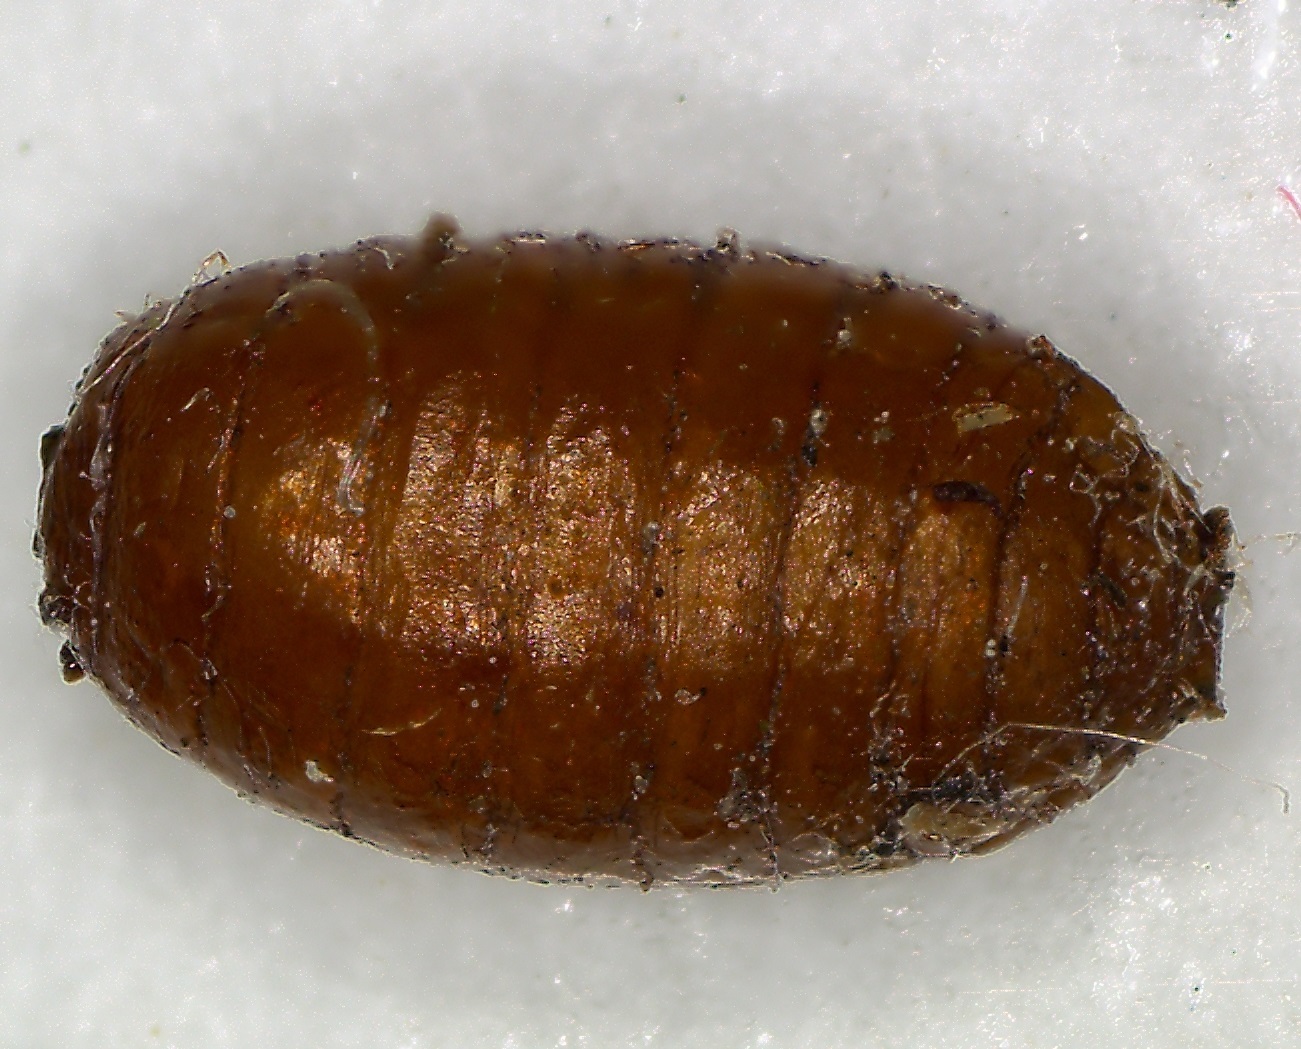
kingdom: Animalia
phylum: Arthropoda
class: Insecta
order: Diptera
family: Tephritidae
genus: Rhagoletis
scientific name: Rhagoletis cingulata
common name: North american cherry fruit fly
